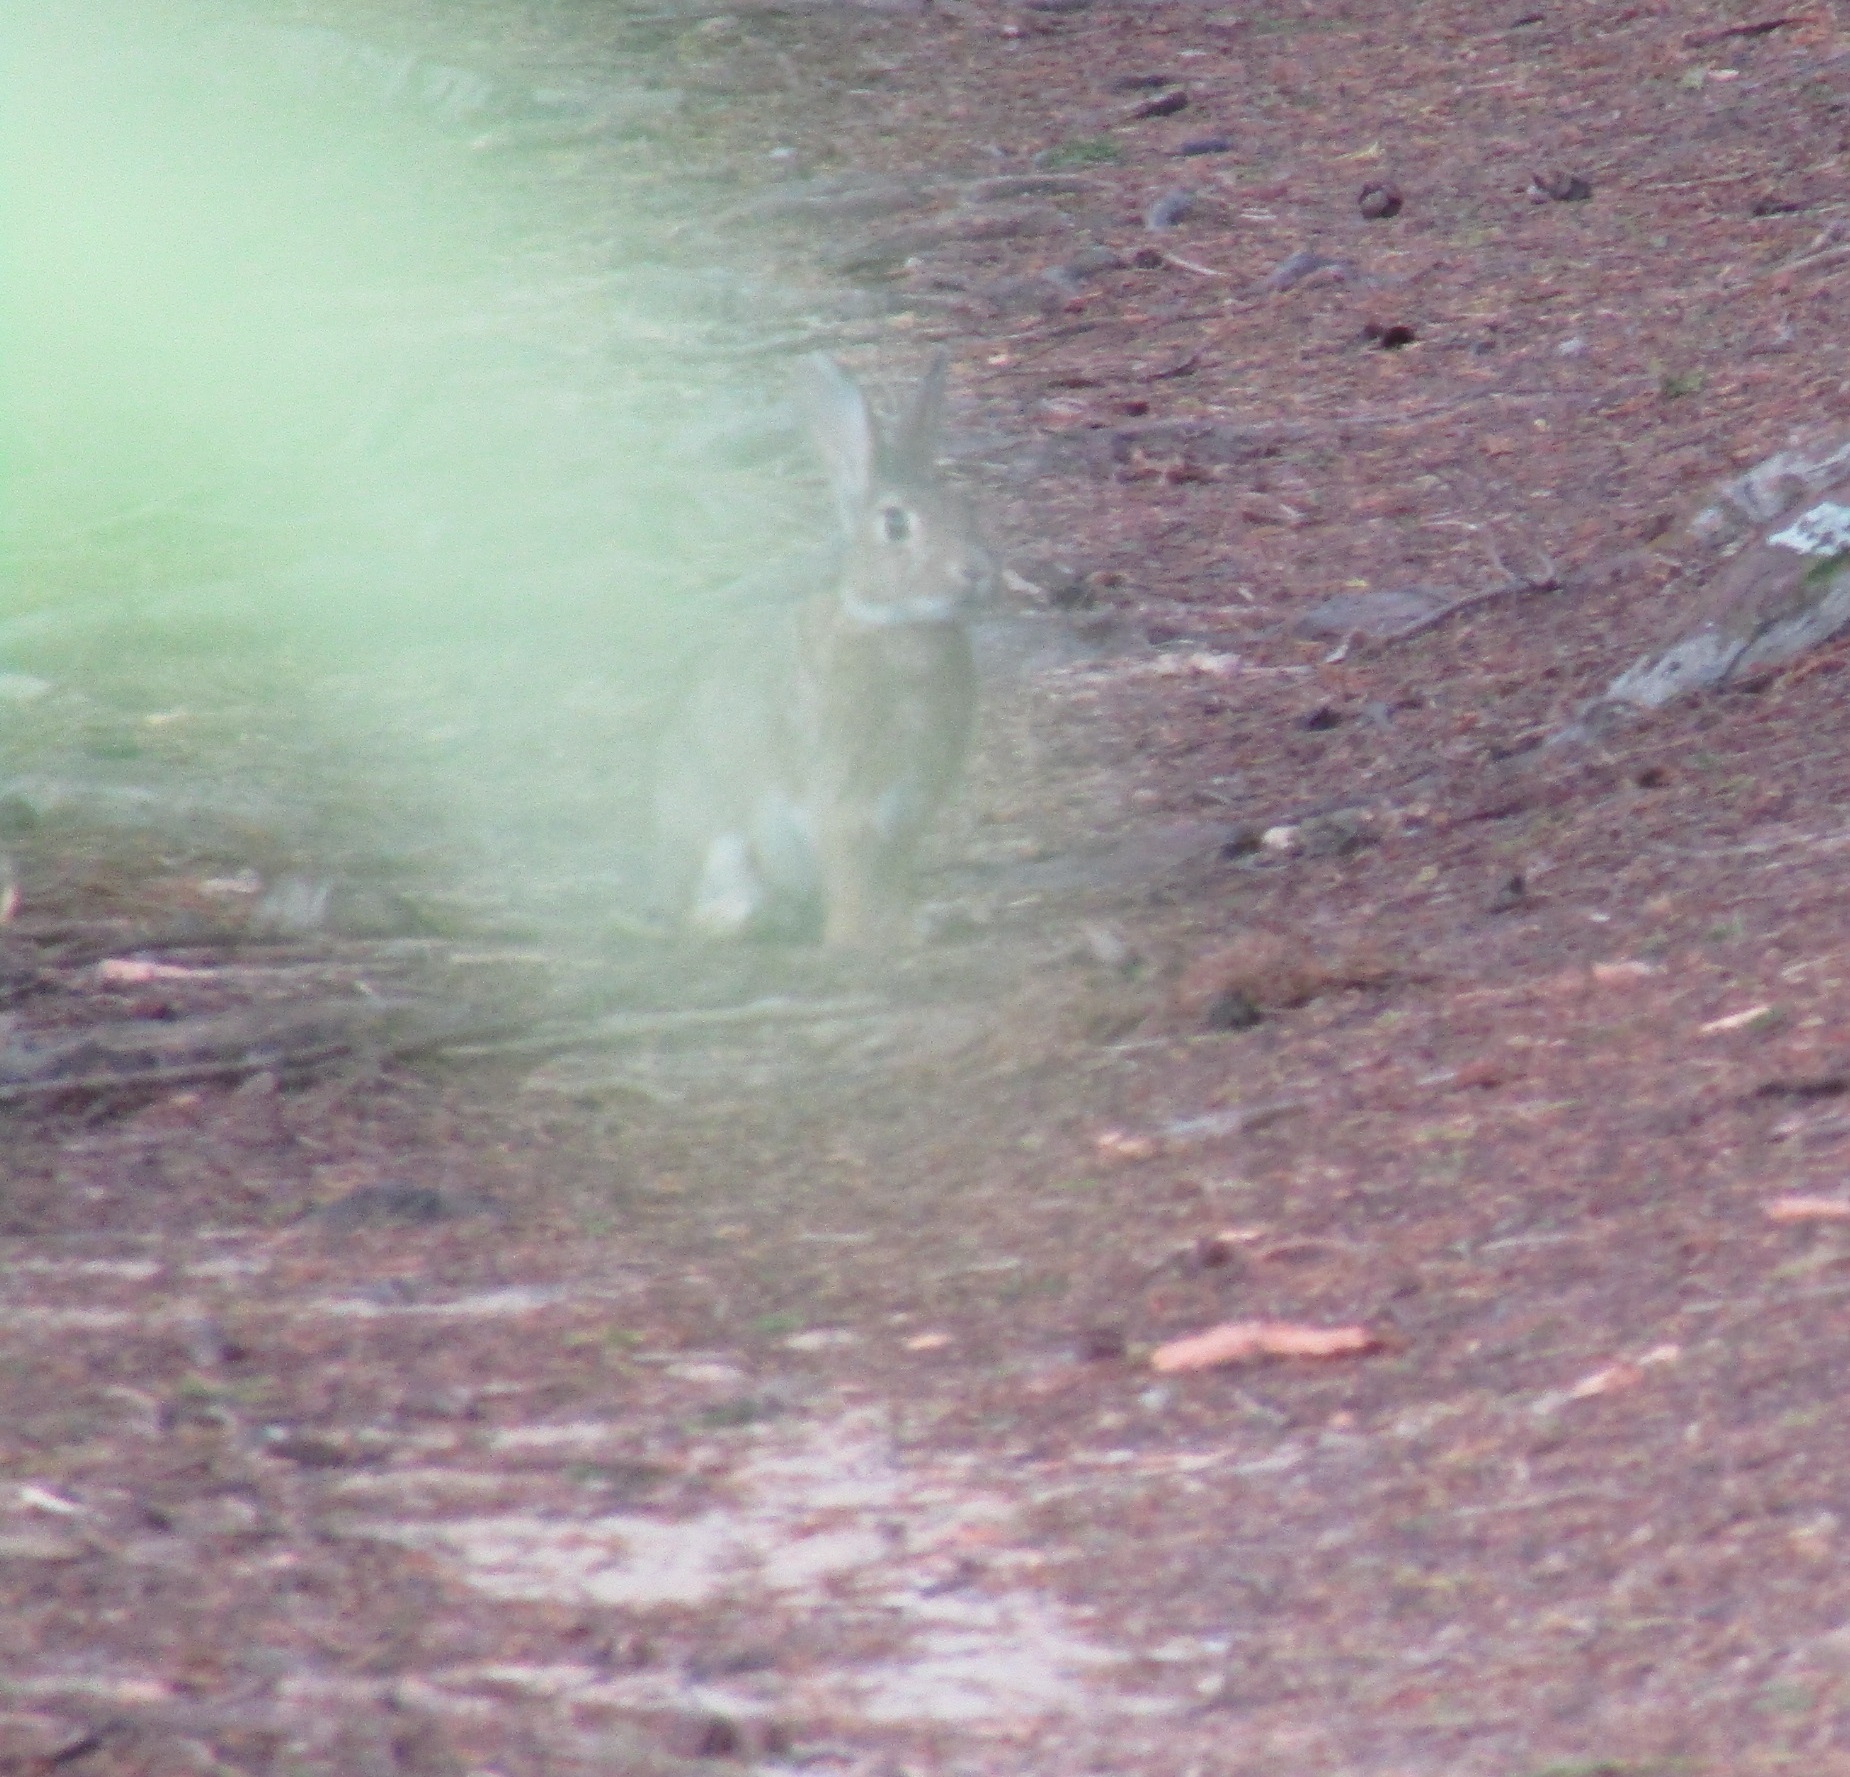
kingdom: Animalia
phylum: Chordata
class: Mammalia
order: Lagomorpha
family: Leporidae
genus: Oryctolagus
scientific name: Oryctolagus cuniculus
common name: European rabbit
